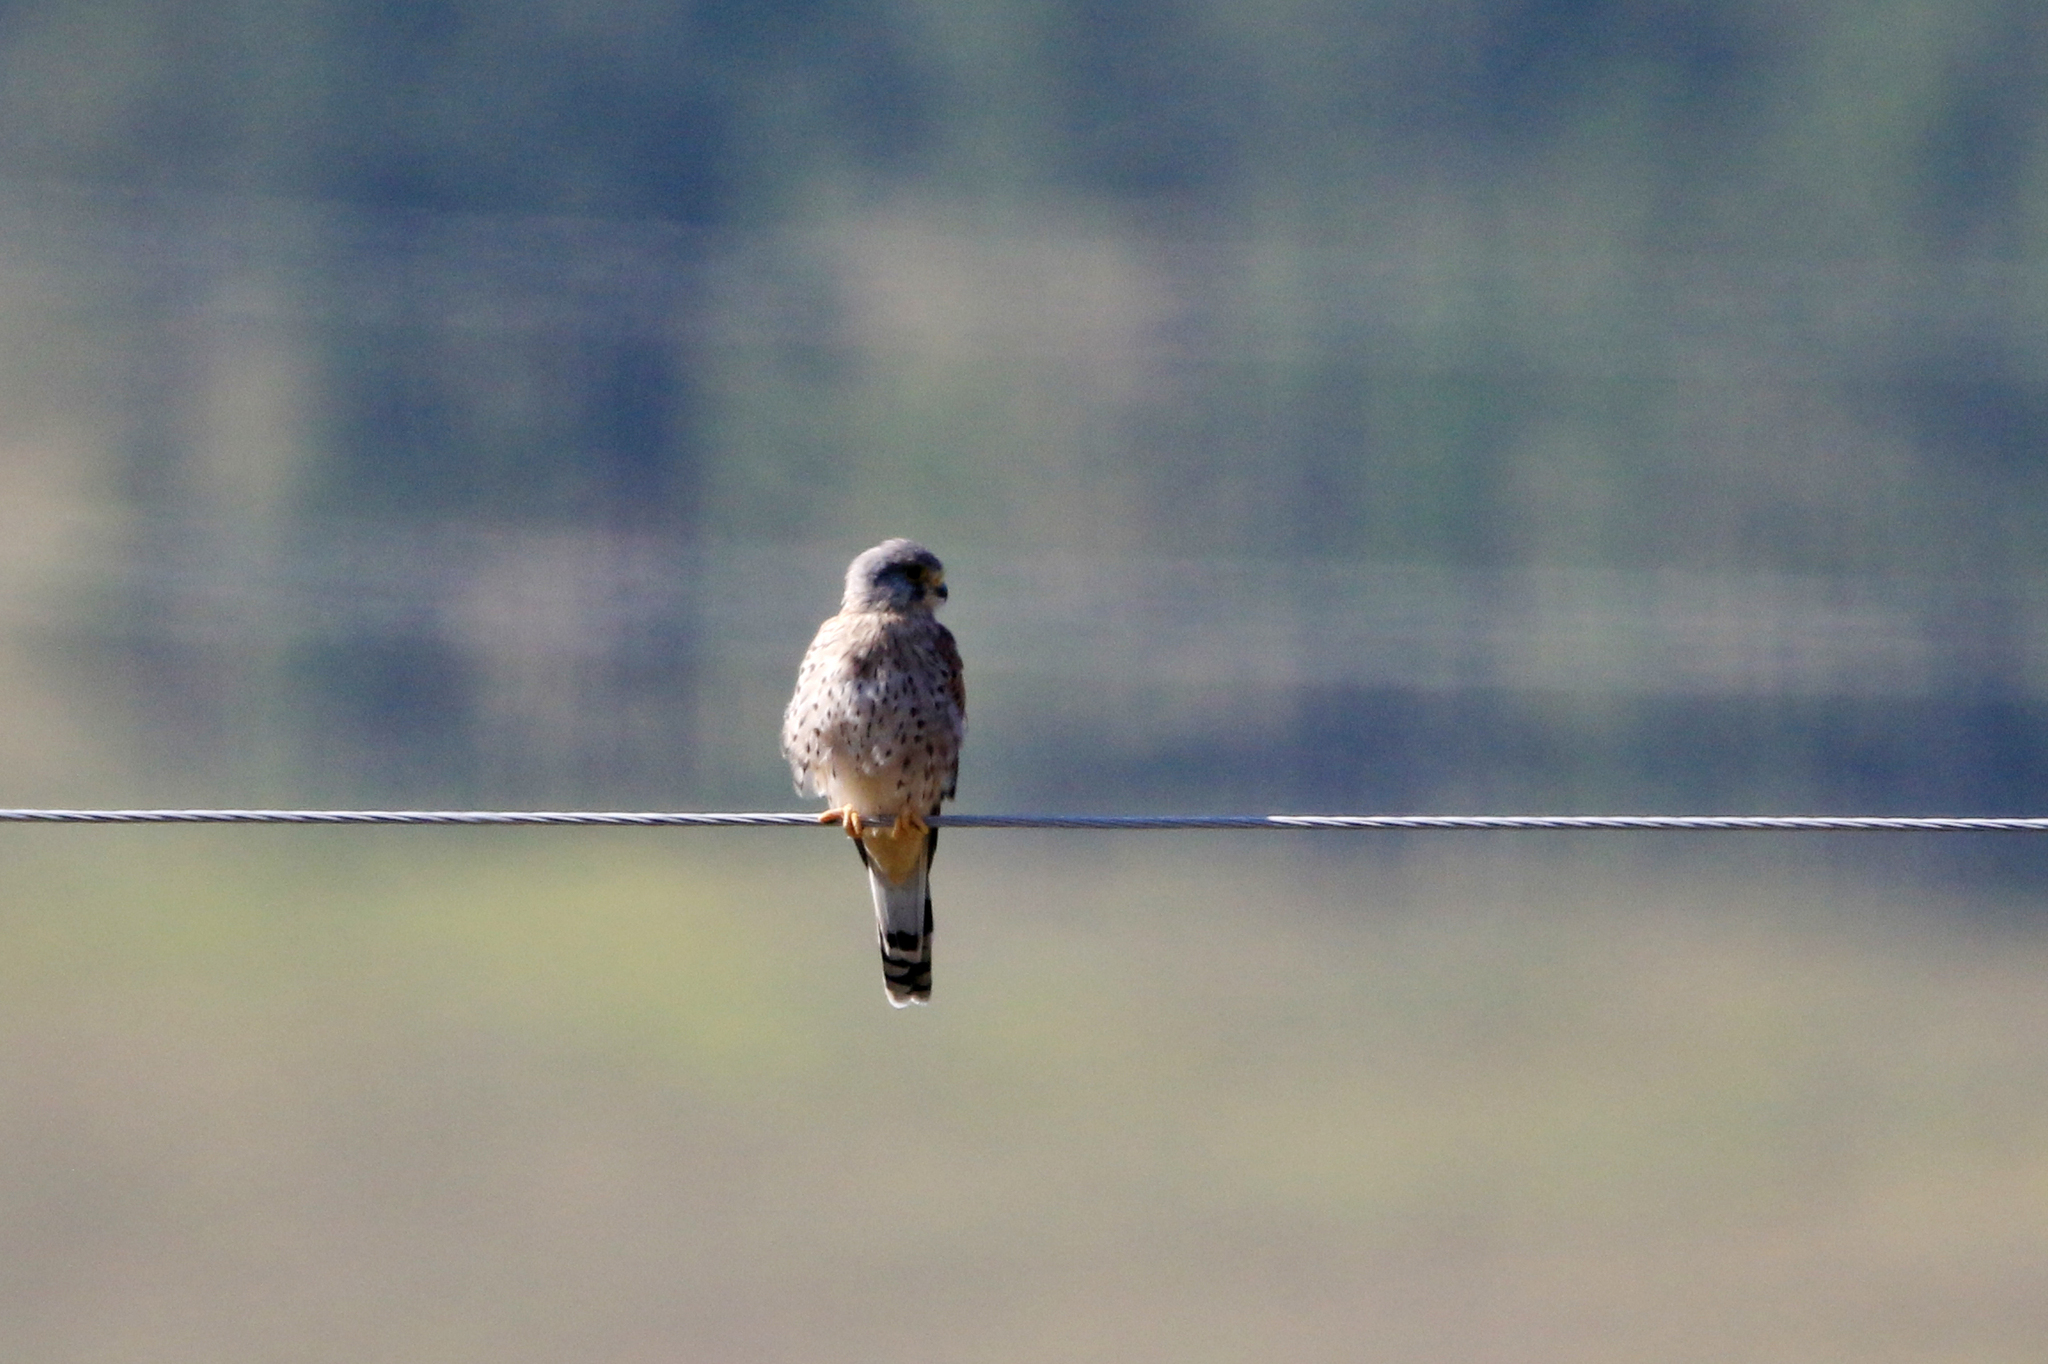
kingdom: Animalia
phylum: Chordata
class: Aves
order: Falconiformes
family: Falconidae
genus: Falco
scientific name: Falco tinnunculus
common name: Common kestrel
